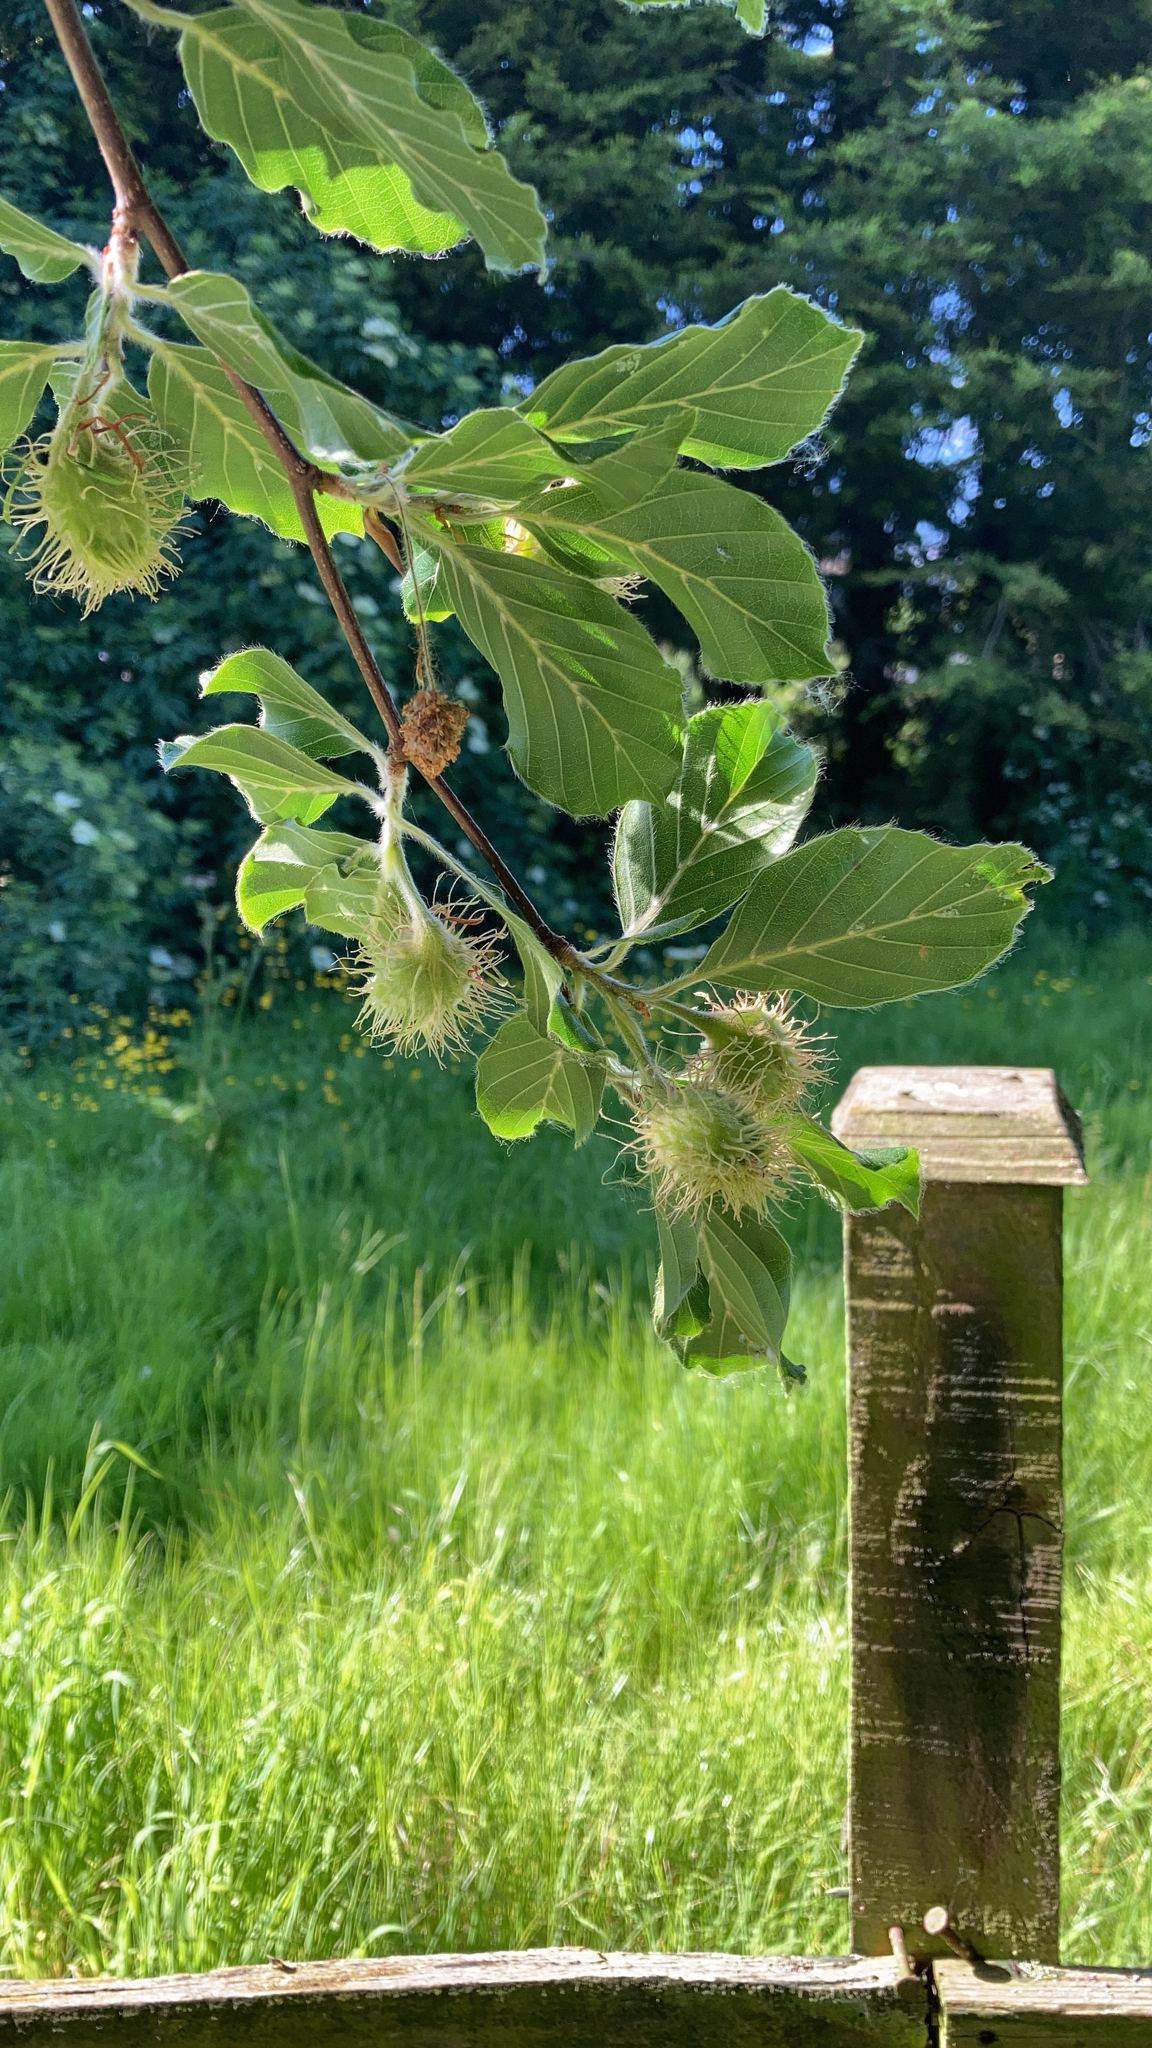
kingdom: Plantae
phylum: Tracheophyta
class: Magnoliopsida
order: Fagales
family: Fagaceae
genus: Fagus
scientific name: Fagus sylvatica
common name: Beech
